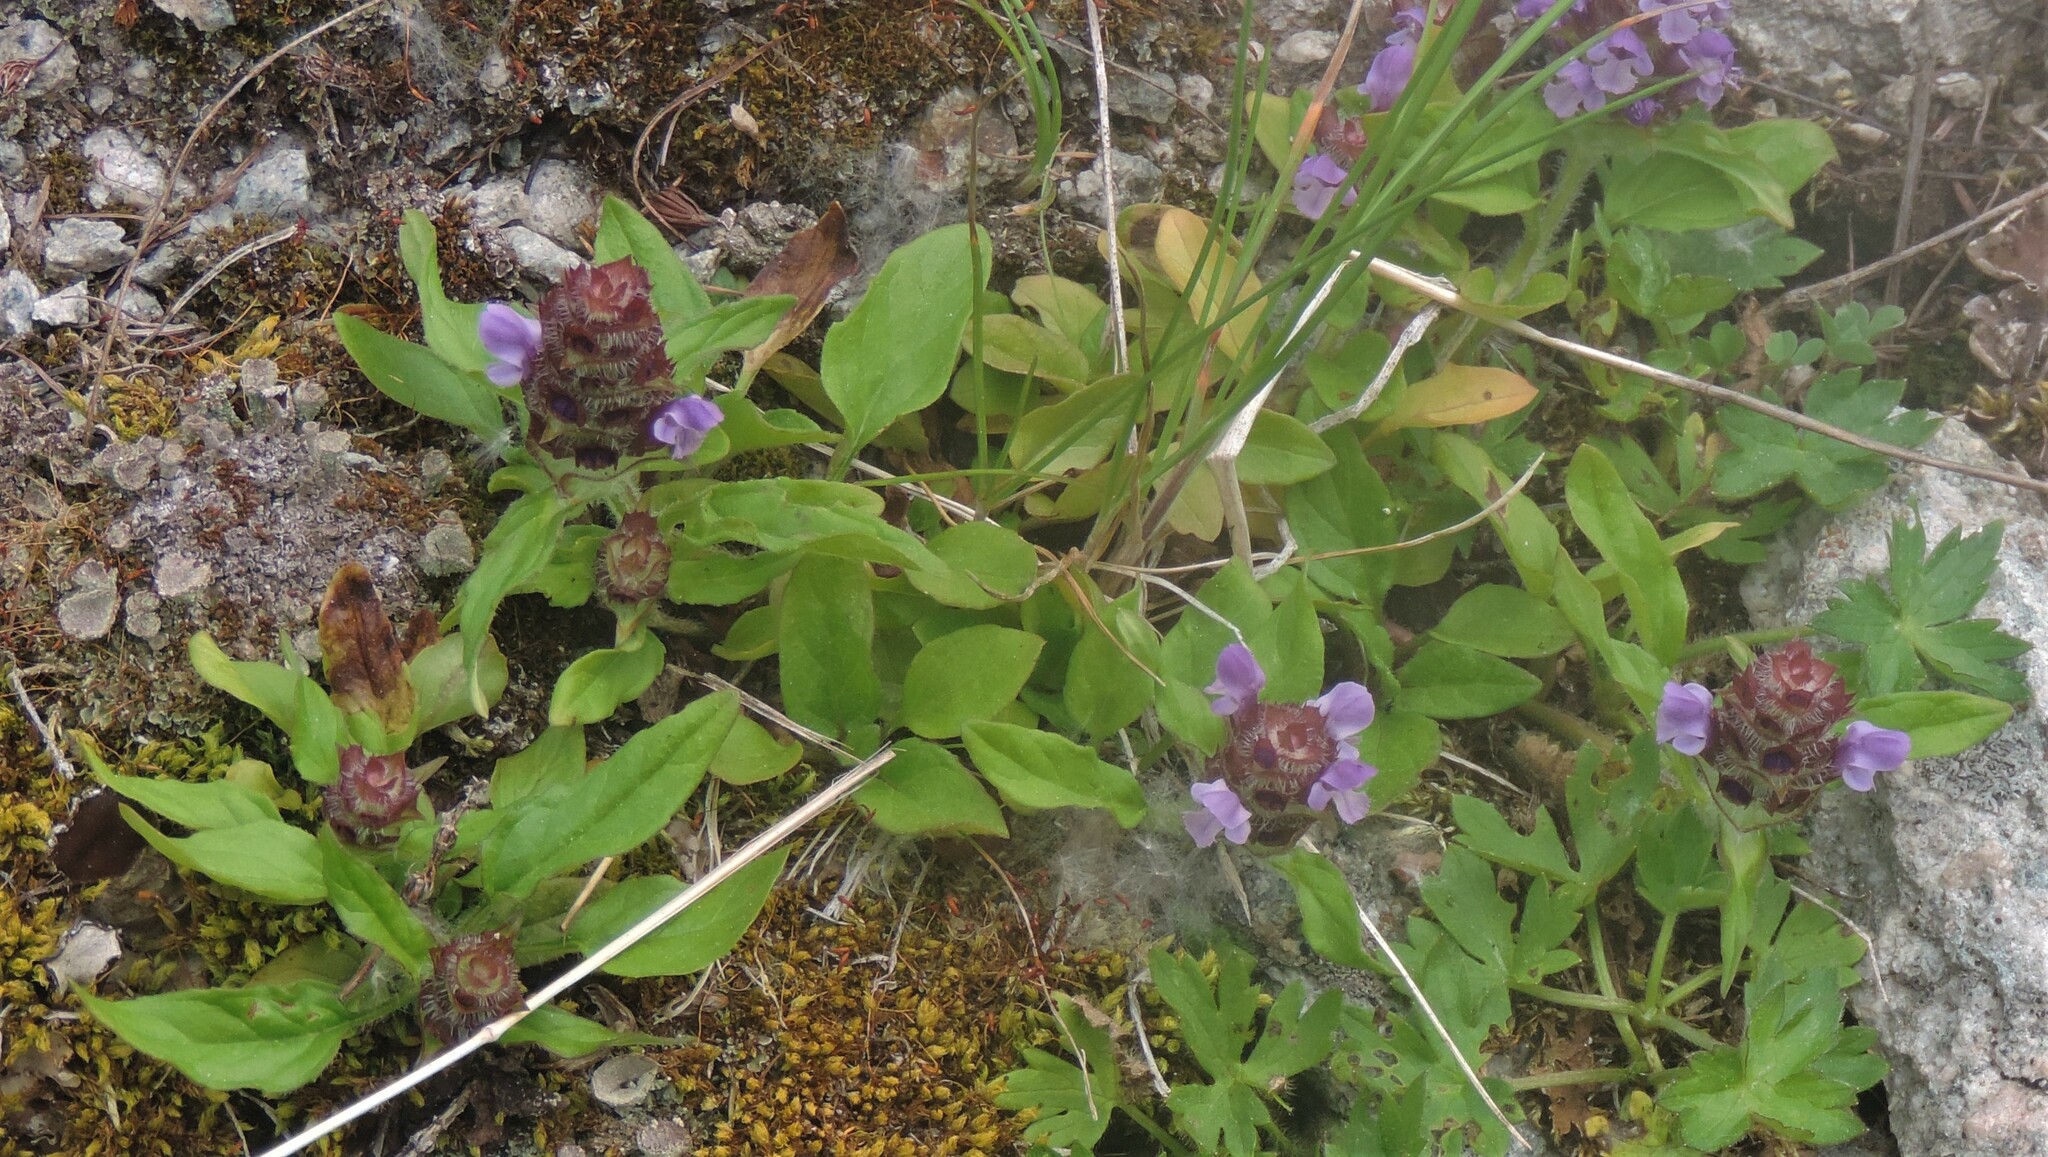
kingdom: Plantae
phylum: Tracheophyta
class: Magnoliopsida
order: Lamiales
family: Lamiaceae
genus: Prunella
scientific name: Prunella vulgaris
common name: Heal-all
